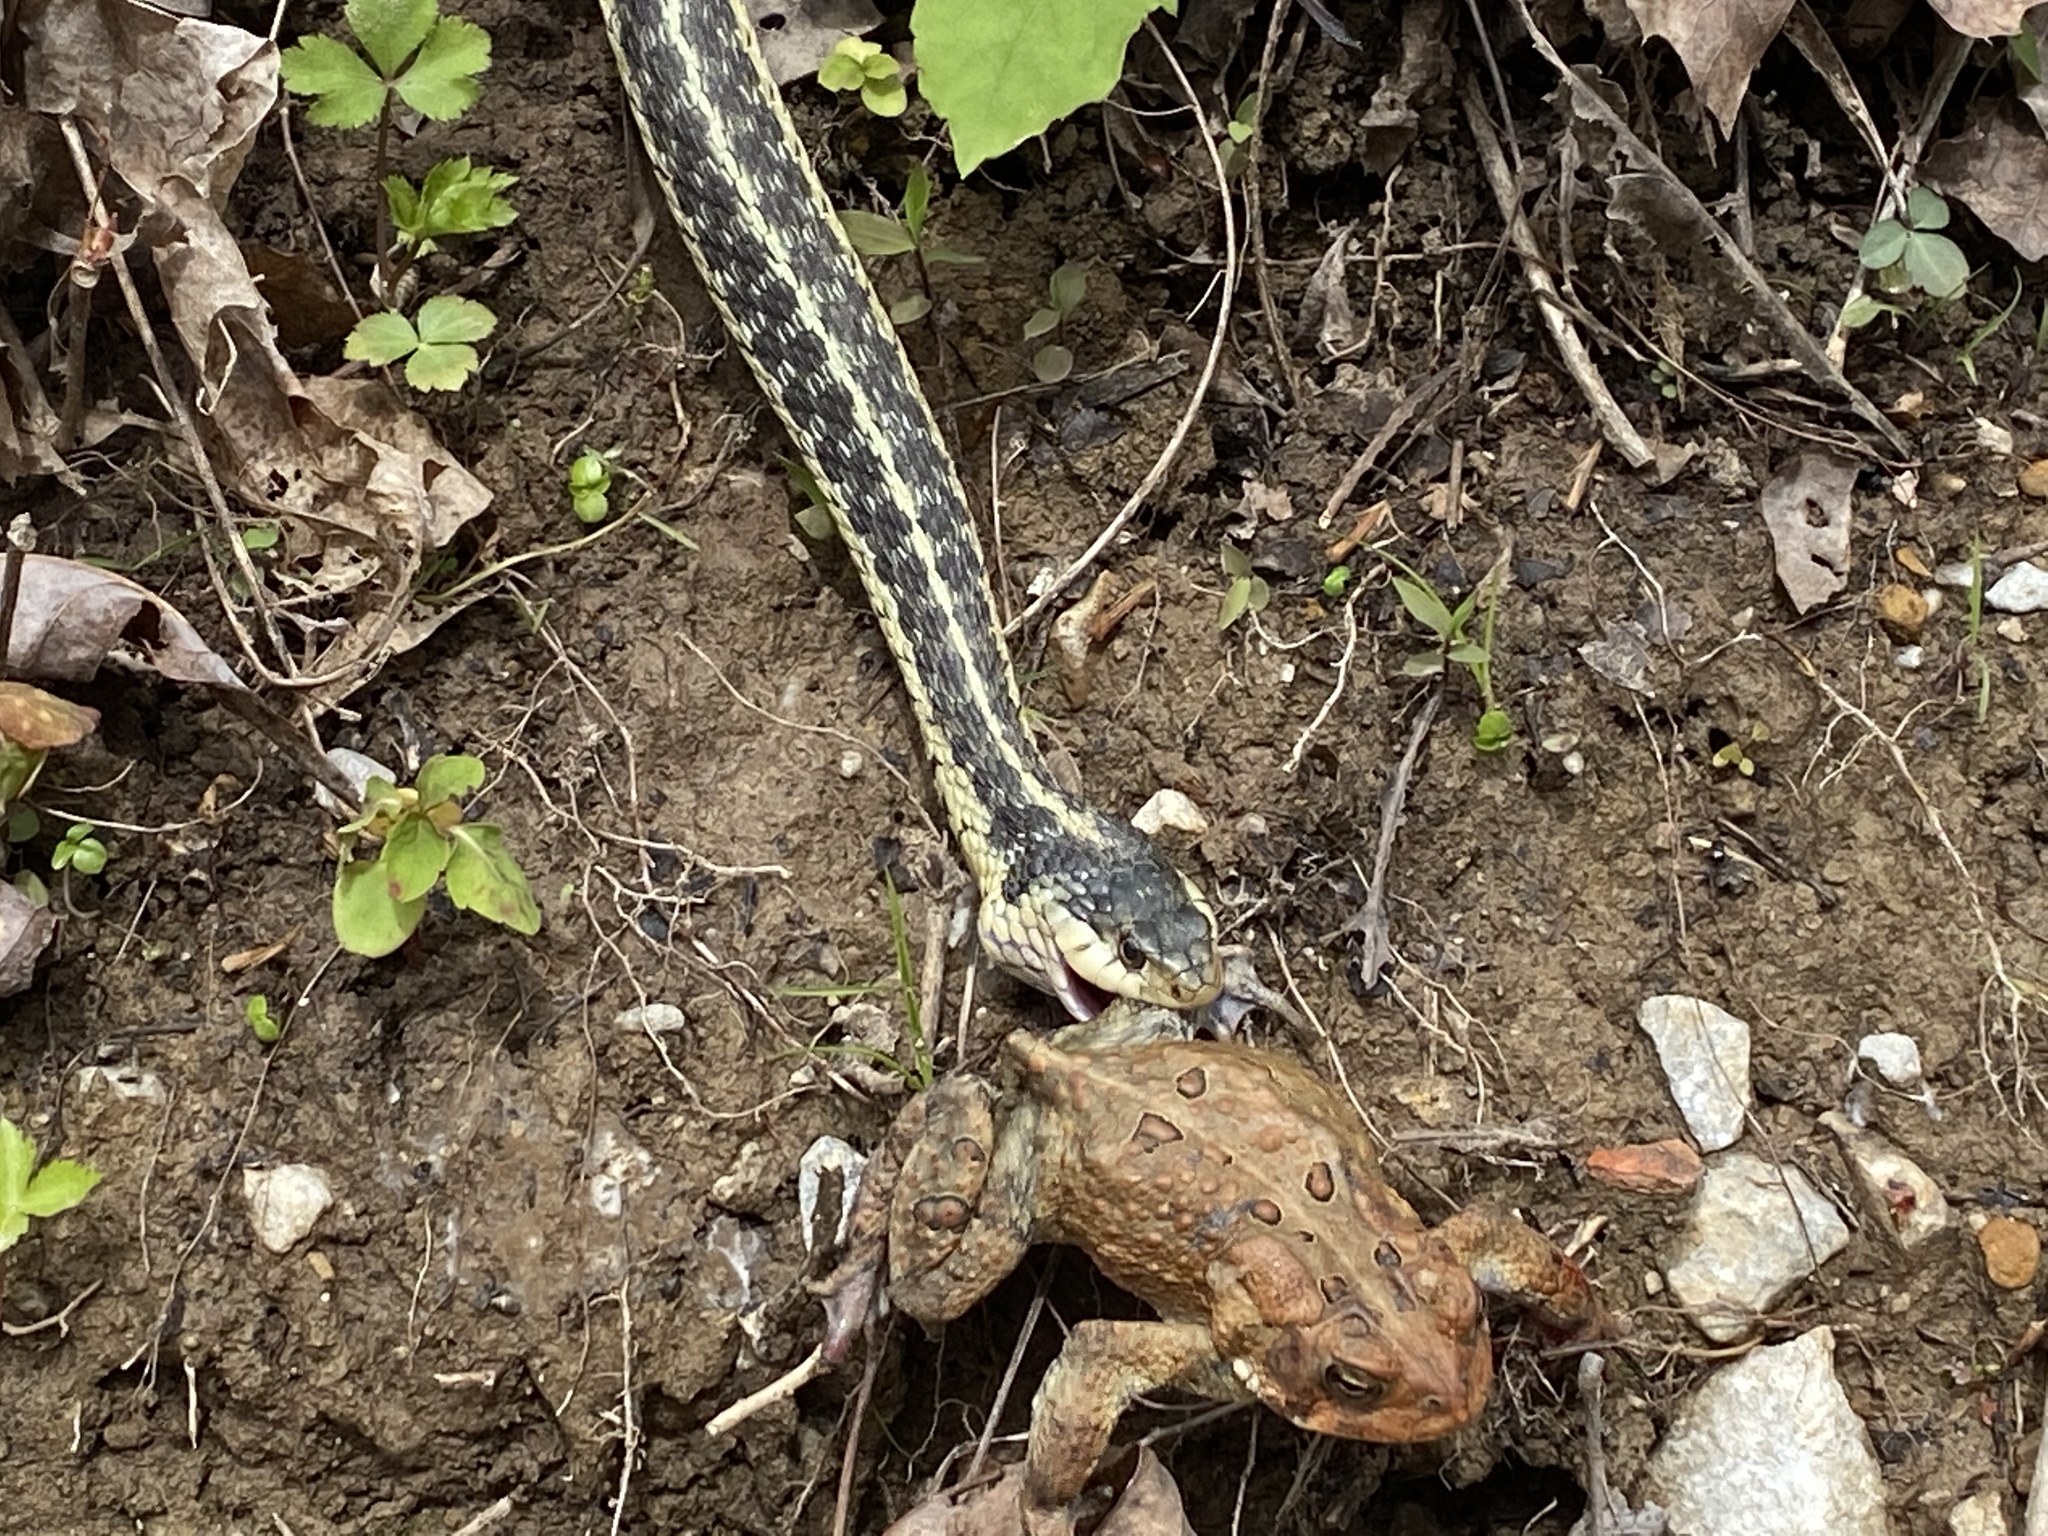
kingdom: Animalia
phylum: Chordata
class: Squamata
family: Colubridae
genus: Thamnophis
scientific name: Thamnophis sirtalis
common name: Common garter snake
